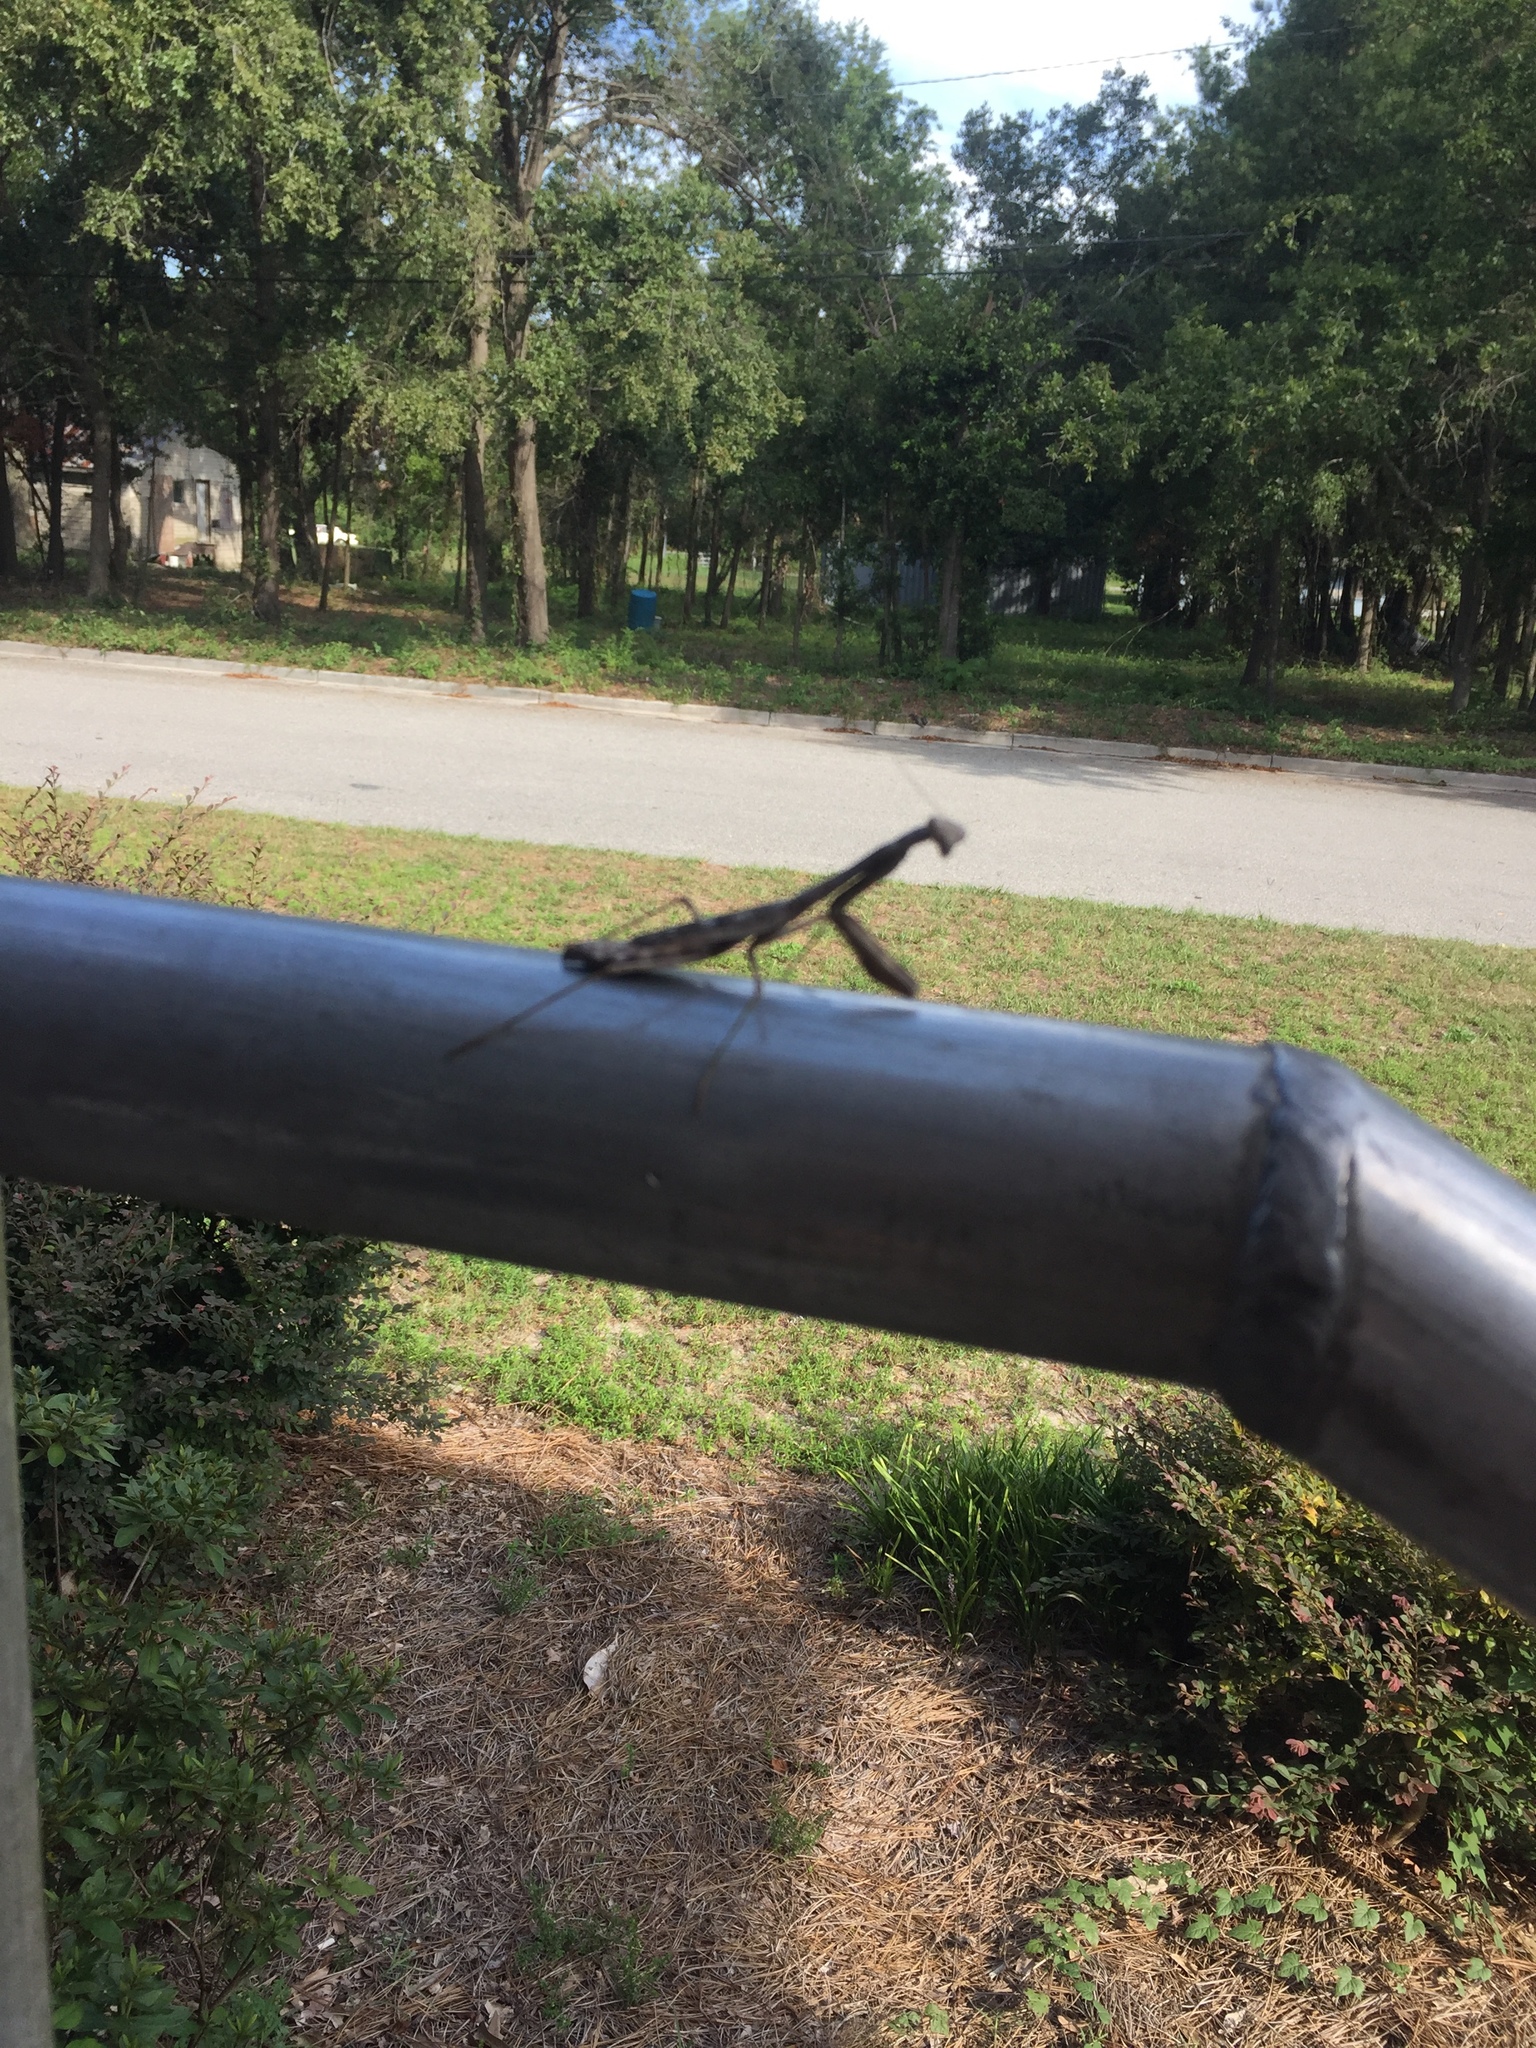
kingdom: Animalia
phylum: Arthropoda
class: Insecta
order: Mantodea
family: Mantidae
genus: Stagmomantis
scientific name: Stagmomantis carolina
